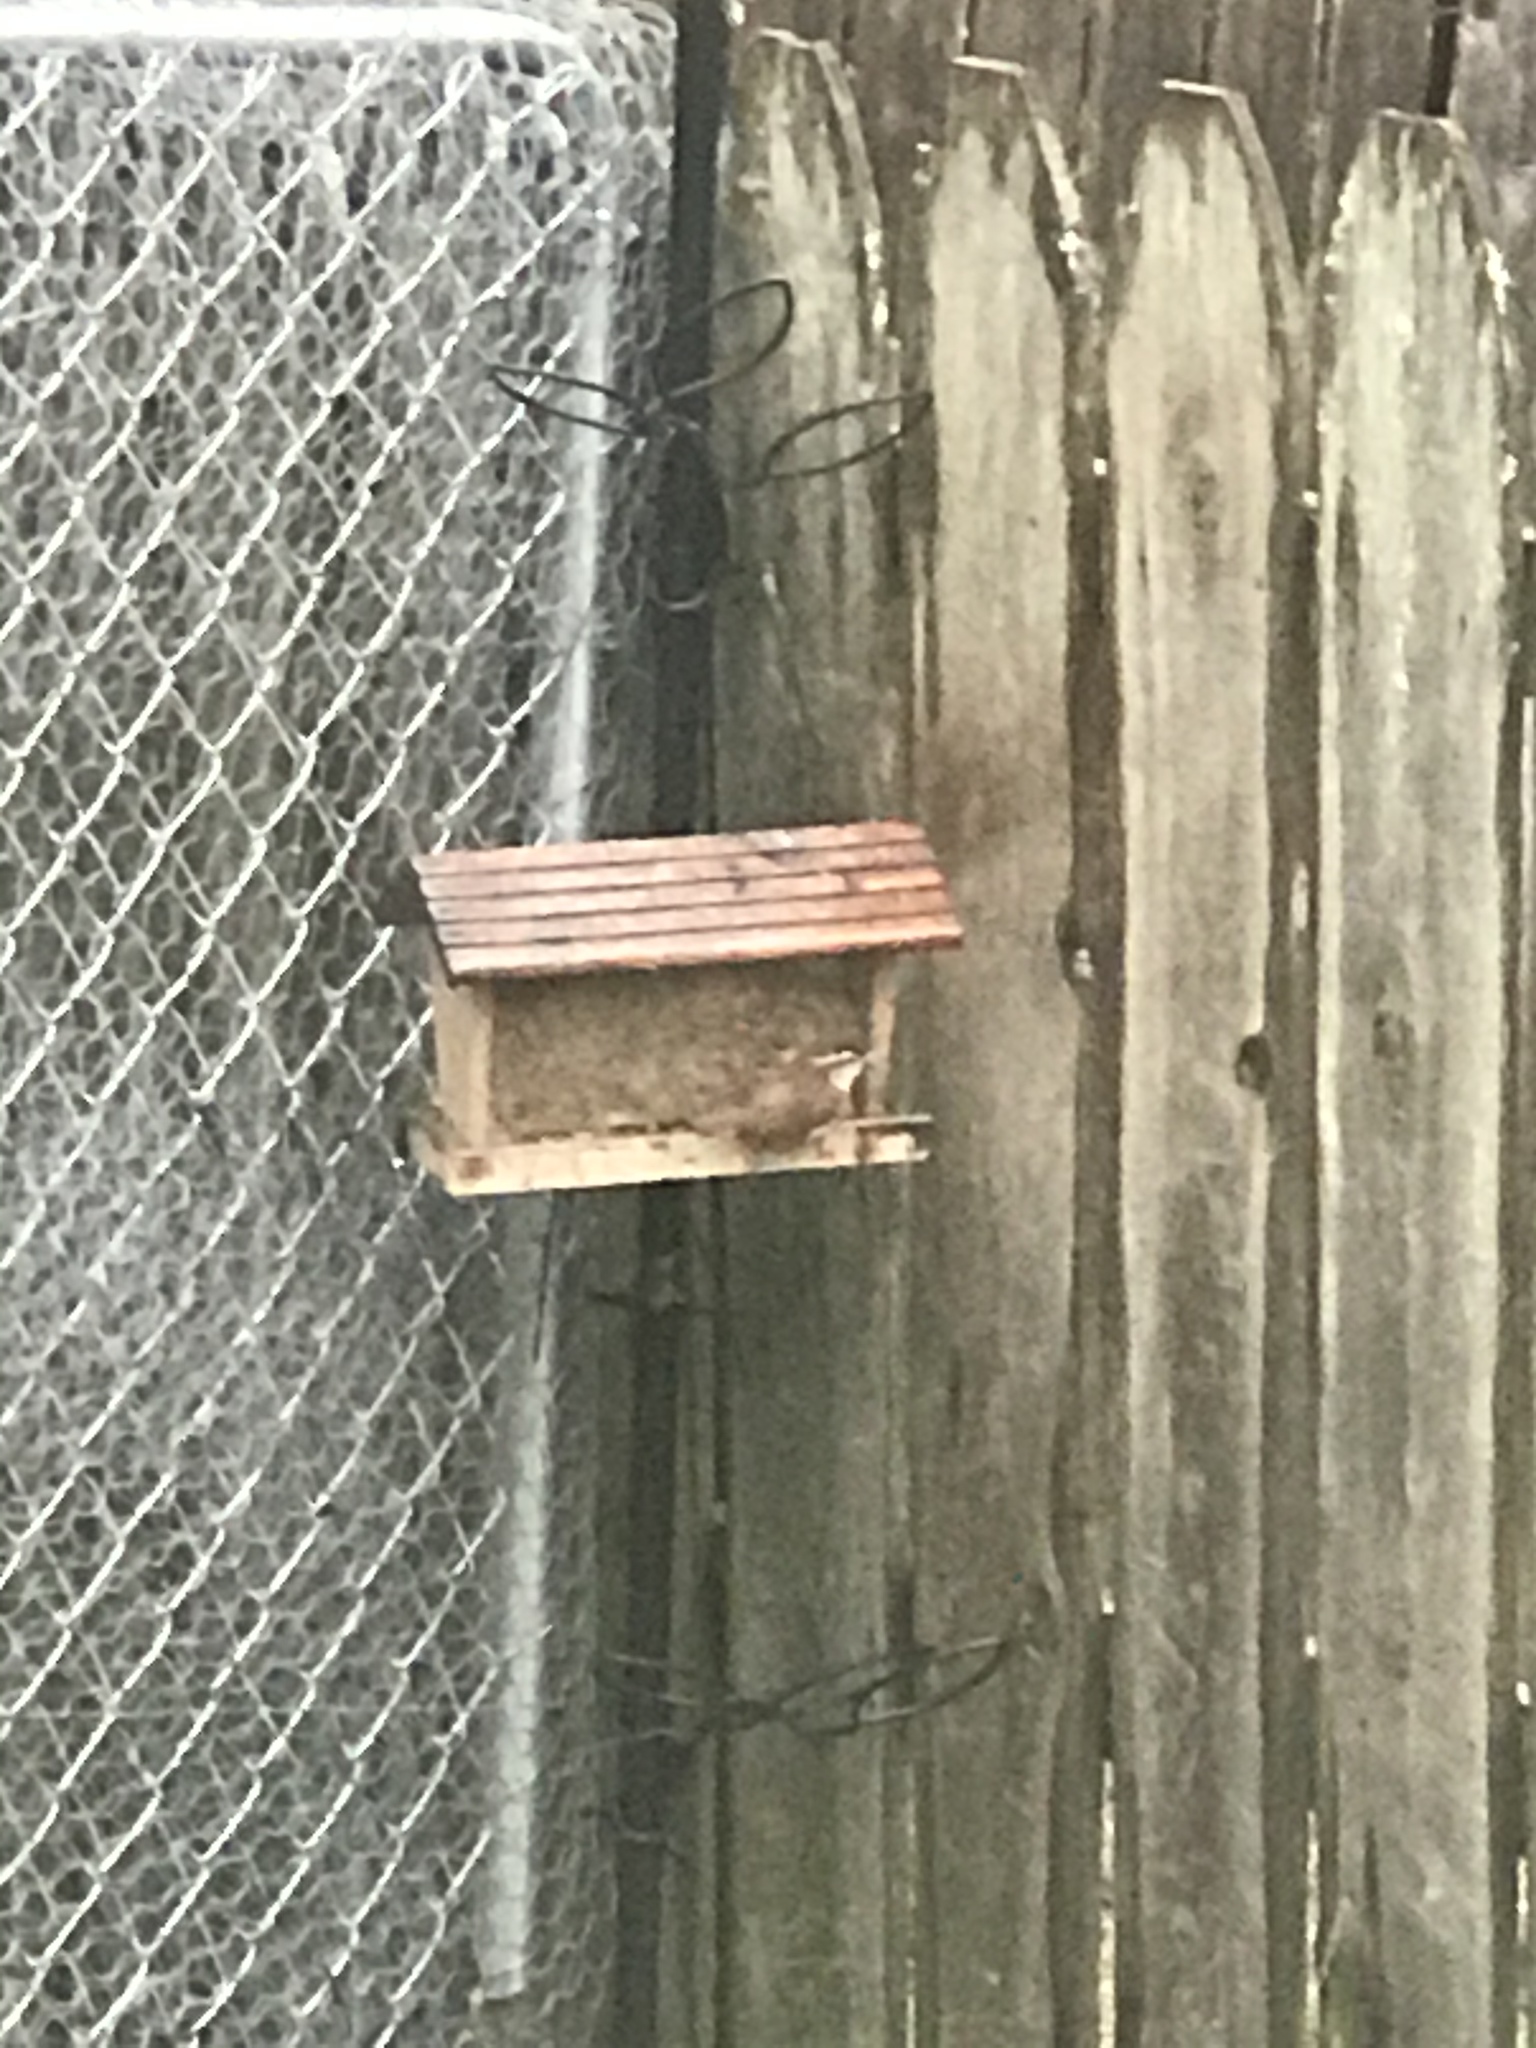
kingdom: Animalia
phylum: Chordata
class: Aves
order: Passeriformes
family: Troglodytidae
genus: Thryothorus
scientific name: Thryothorus ludovicianus
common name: Carolina wren
